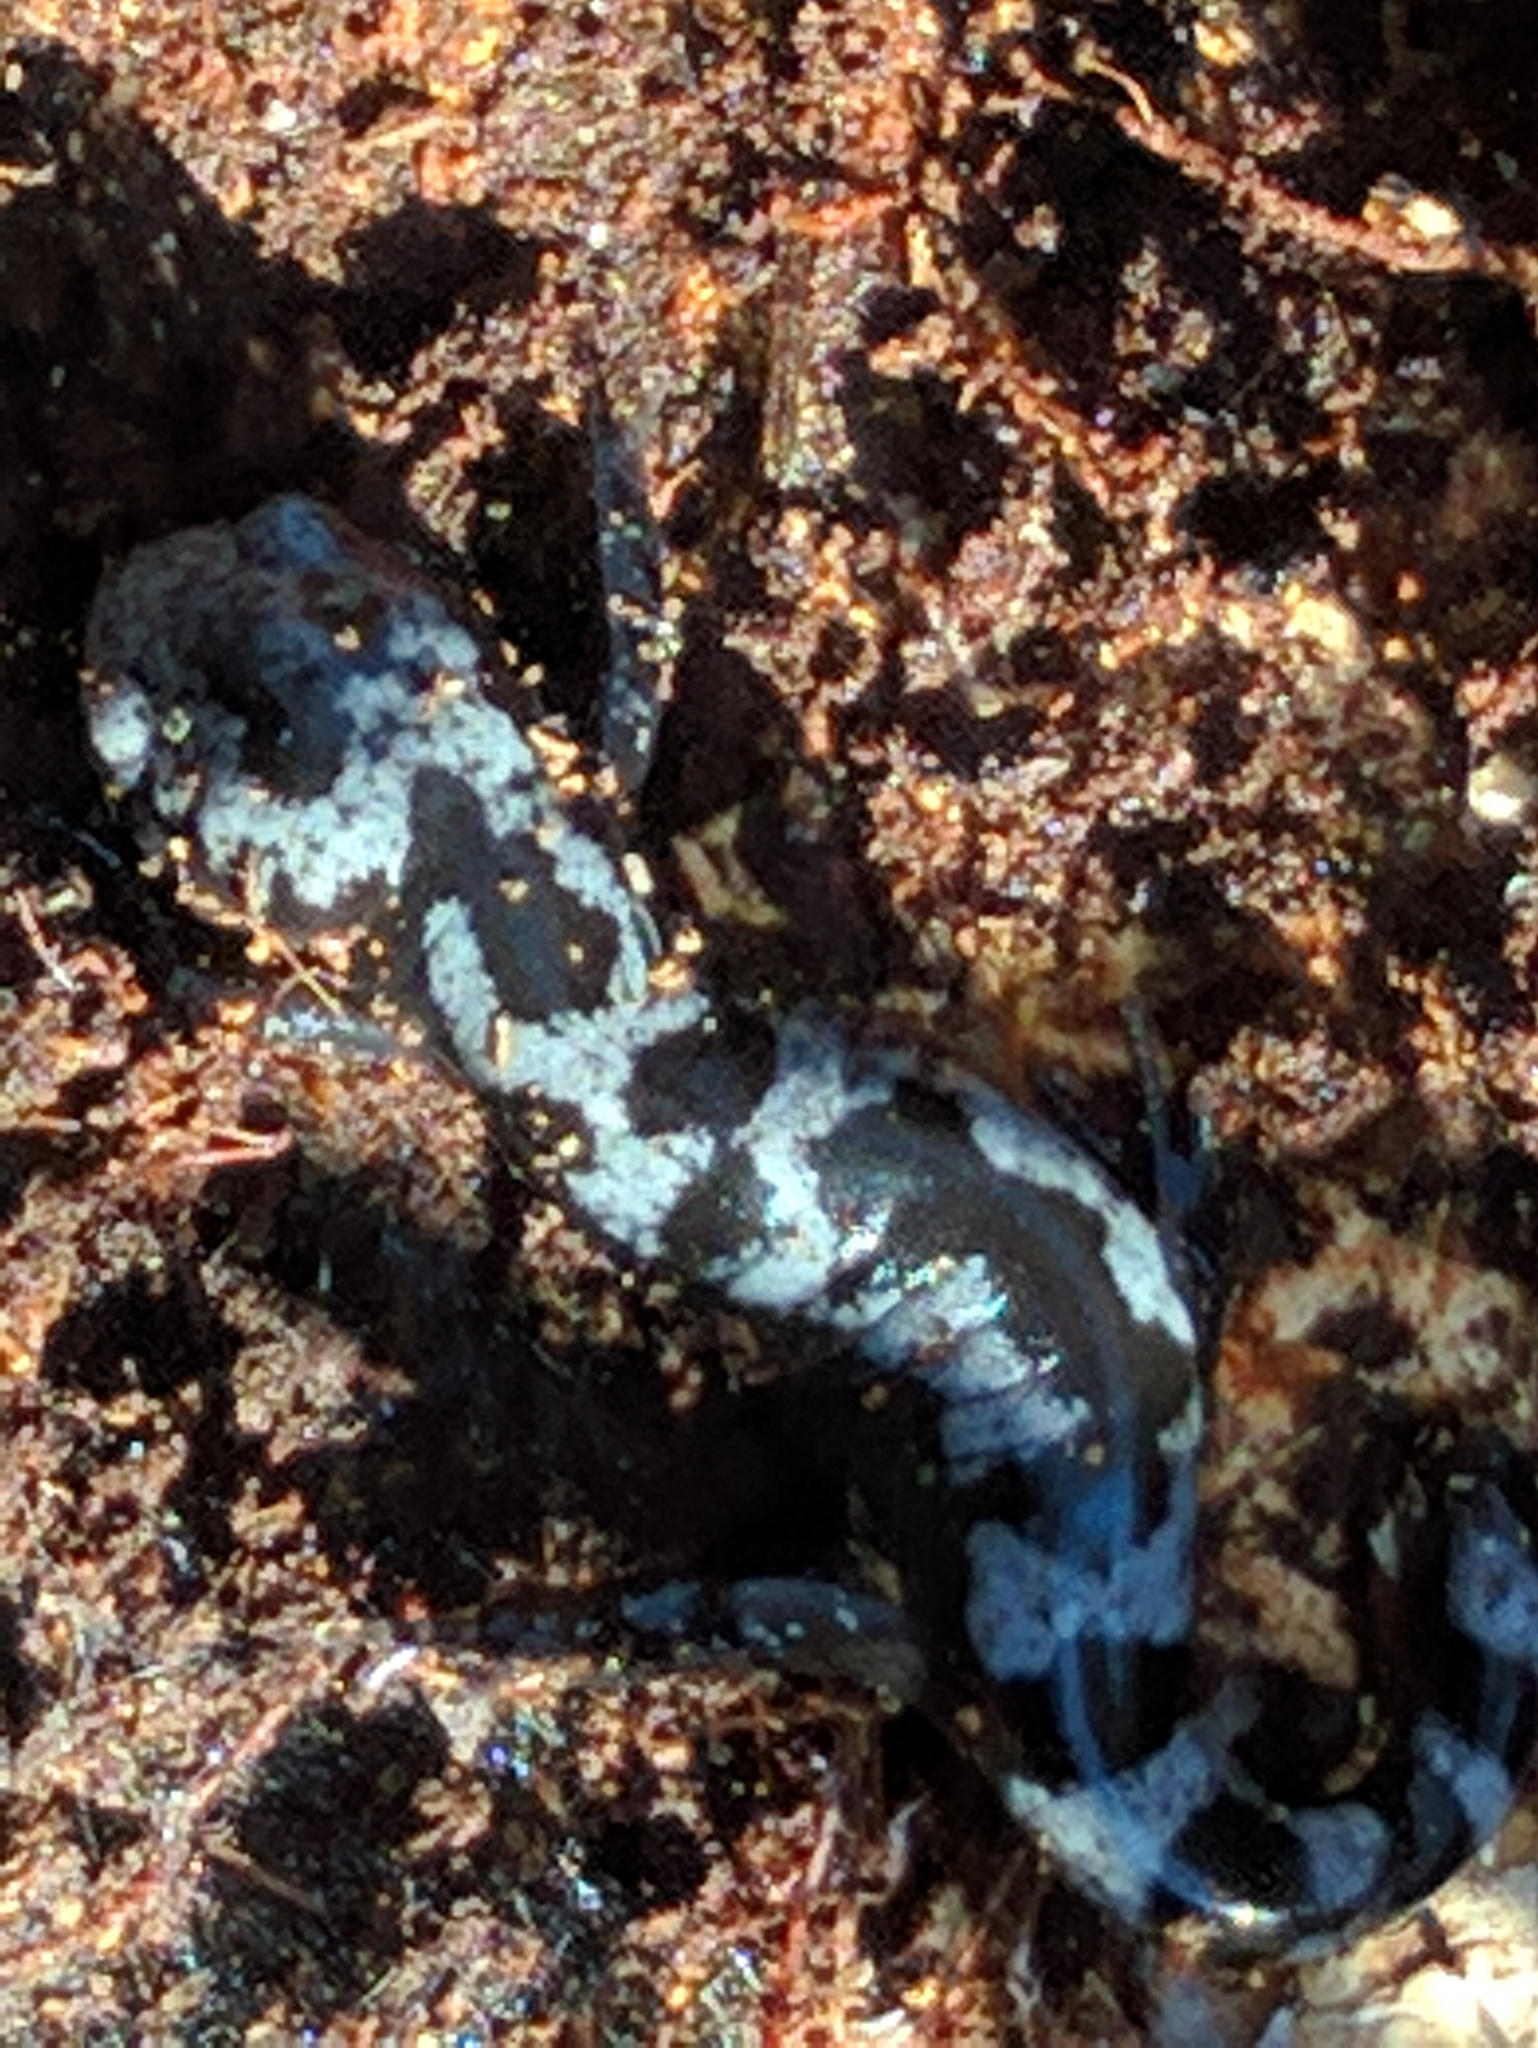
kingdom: Animalia
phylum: Chordata
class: Amphibia
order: Caudata
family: Ambystomatidae
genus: Ambystoma
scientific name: Ambystoma opacum
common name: Marbled salamander
